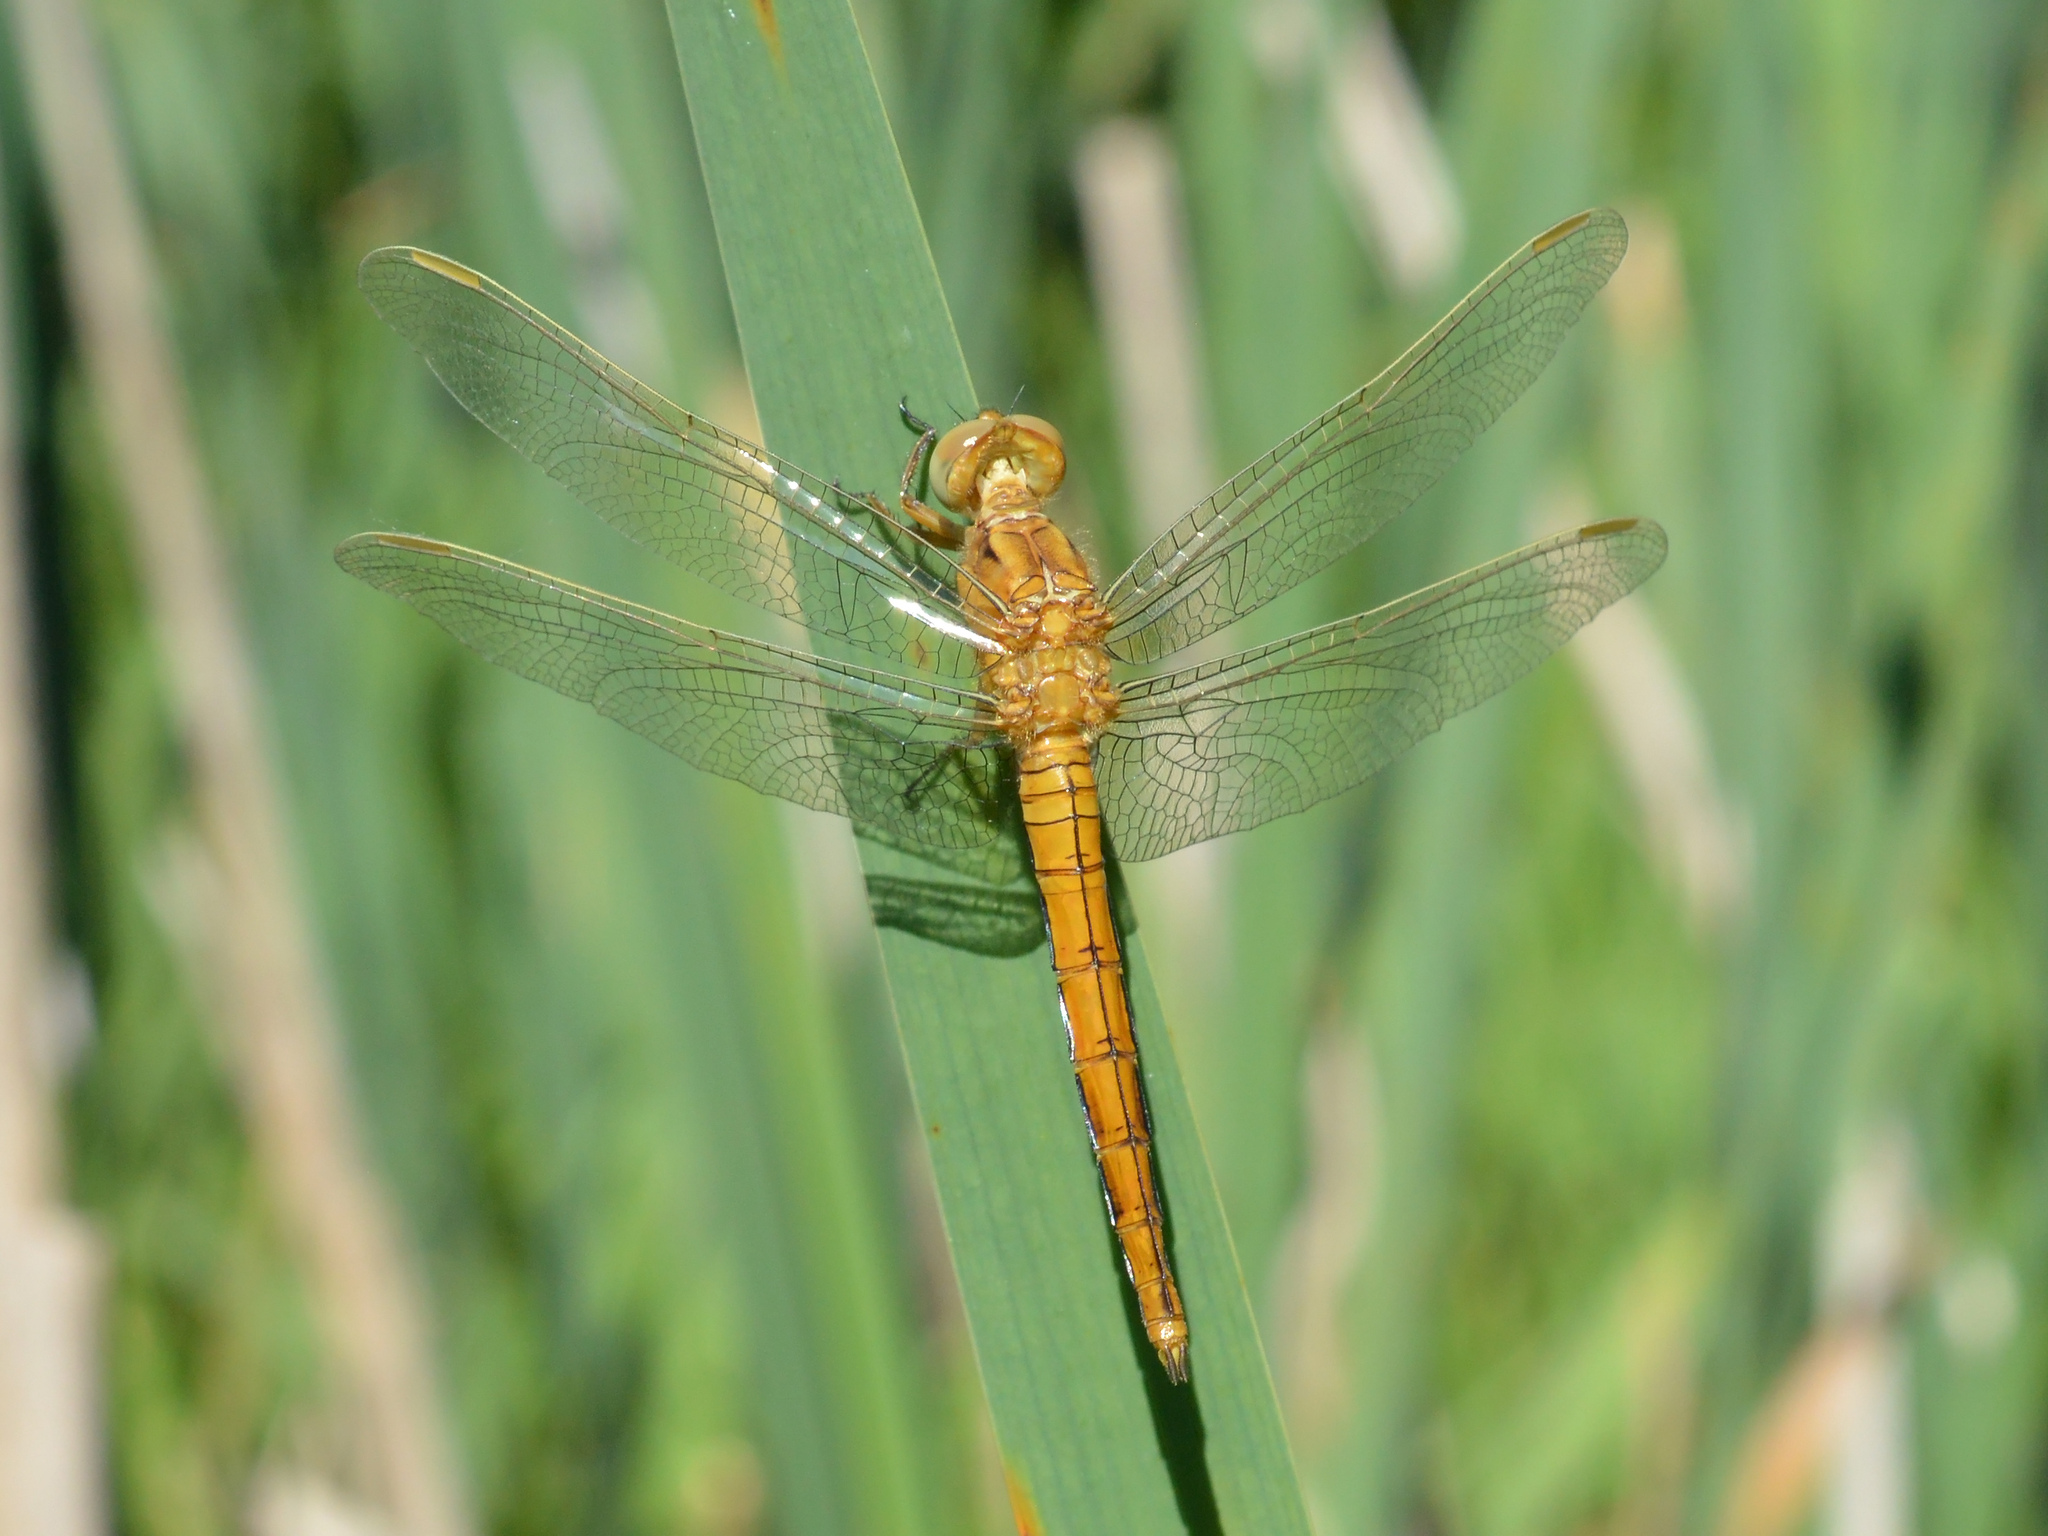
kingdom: Animalia
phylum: Arthropoda
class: Insecta
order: Odonata
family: Libellulidae
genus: Orthetrum
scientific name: Orthetrum coerulescens
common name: Keeled skimmer
